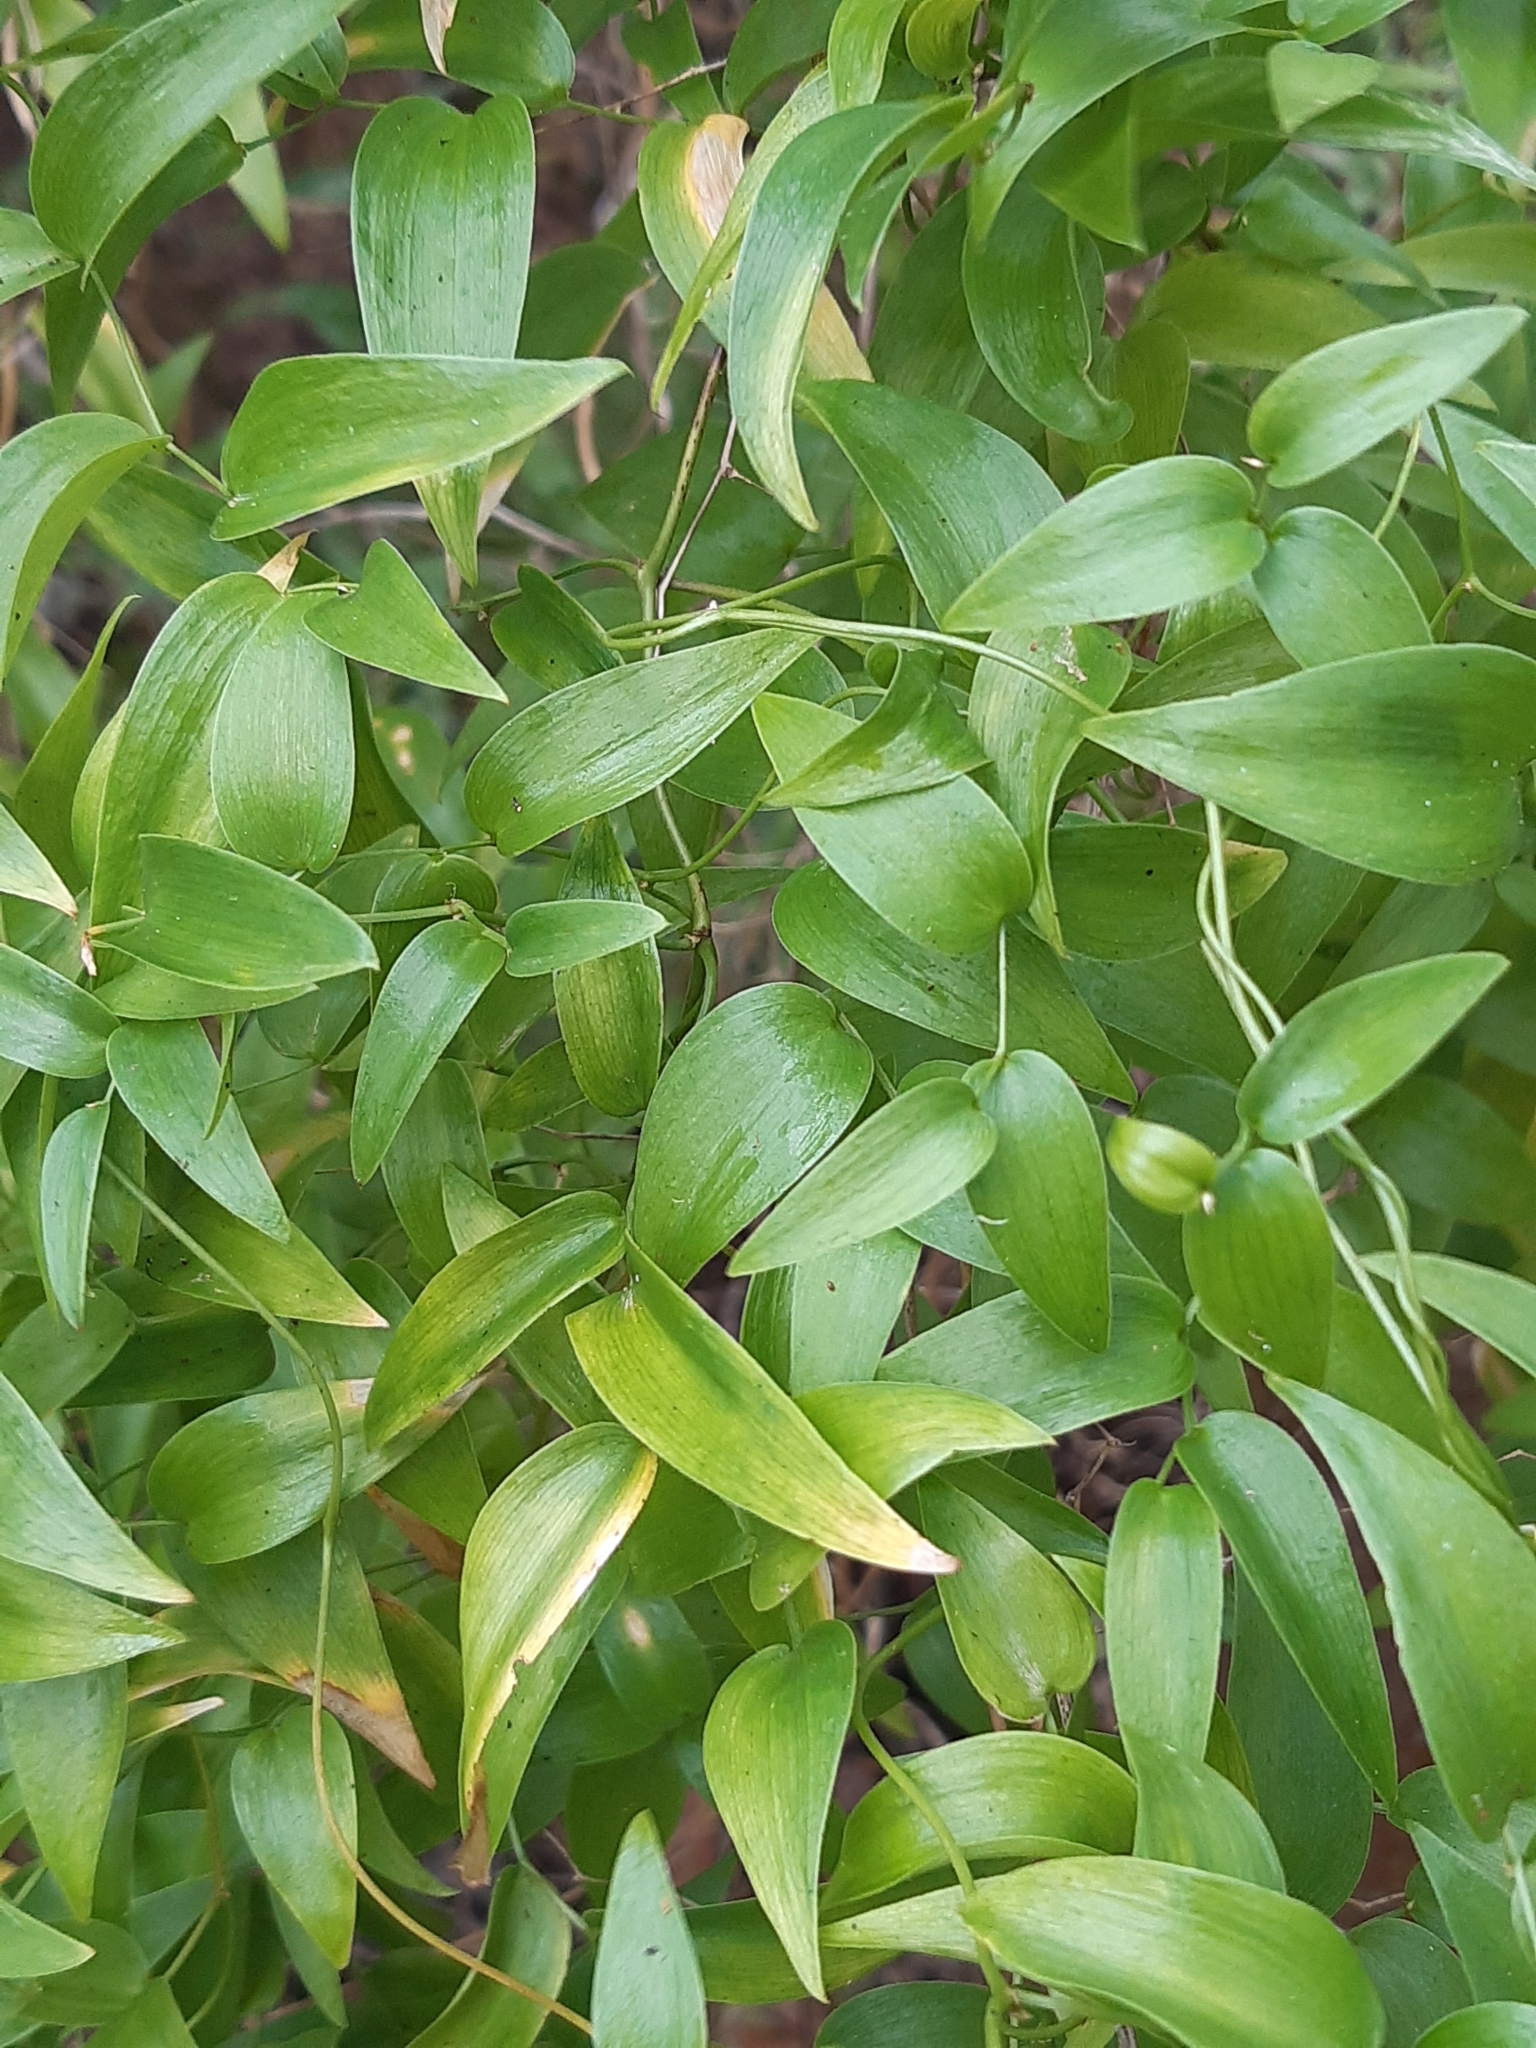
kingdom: Plantae
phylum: Tracheophyta
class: Liliopsida
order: Asparagales
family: Asparagaceae
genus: Asparagus
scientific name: Asparagus asparagoides
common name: African asparagus fern
